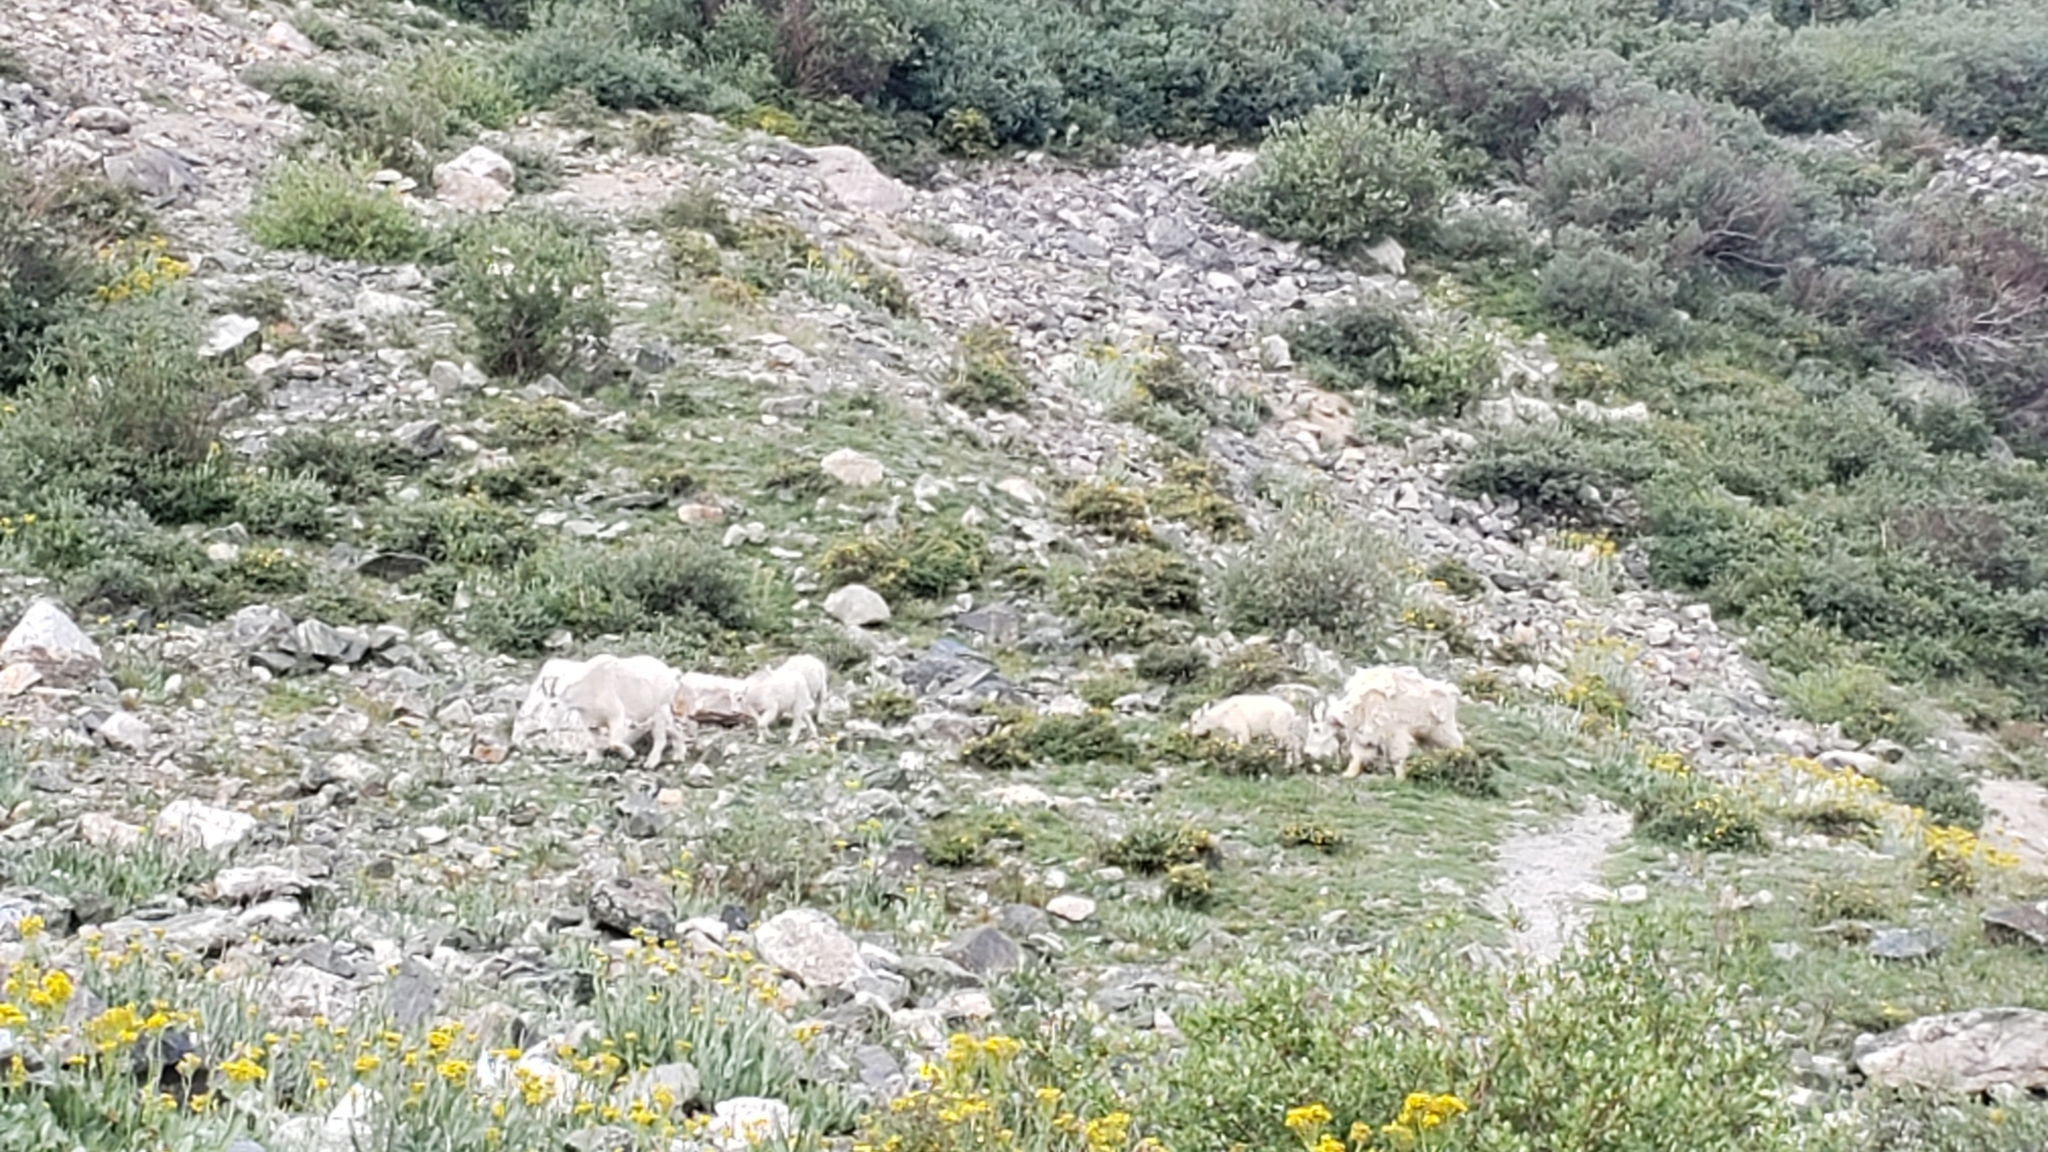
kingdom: Animalia
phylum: Chordata
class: Mammalia
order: Artiodactyla
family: Bovidae
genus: Oreamnos
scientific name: Oreamnos americanus
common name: Mountain goat
